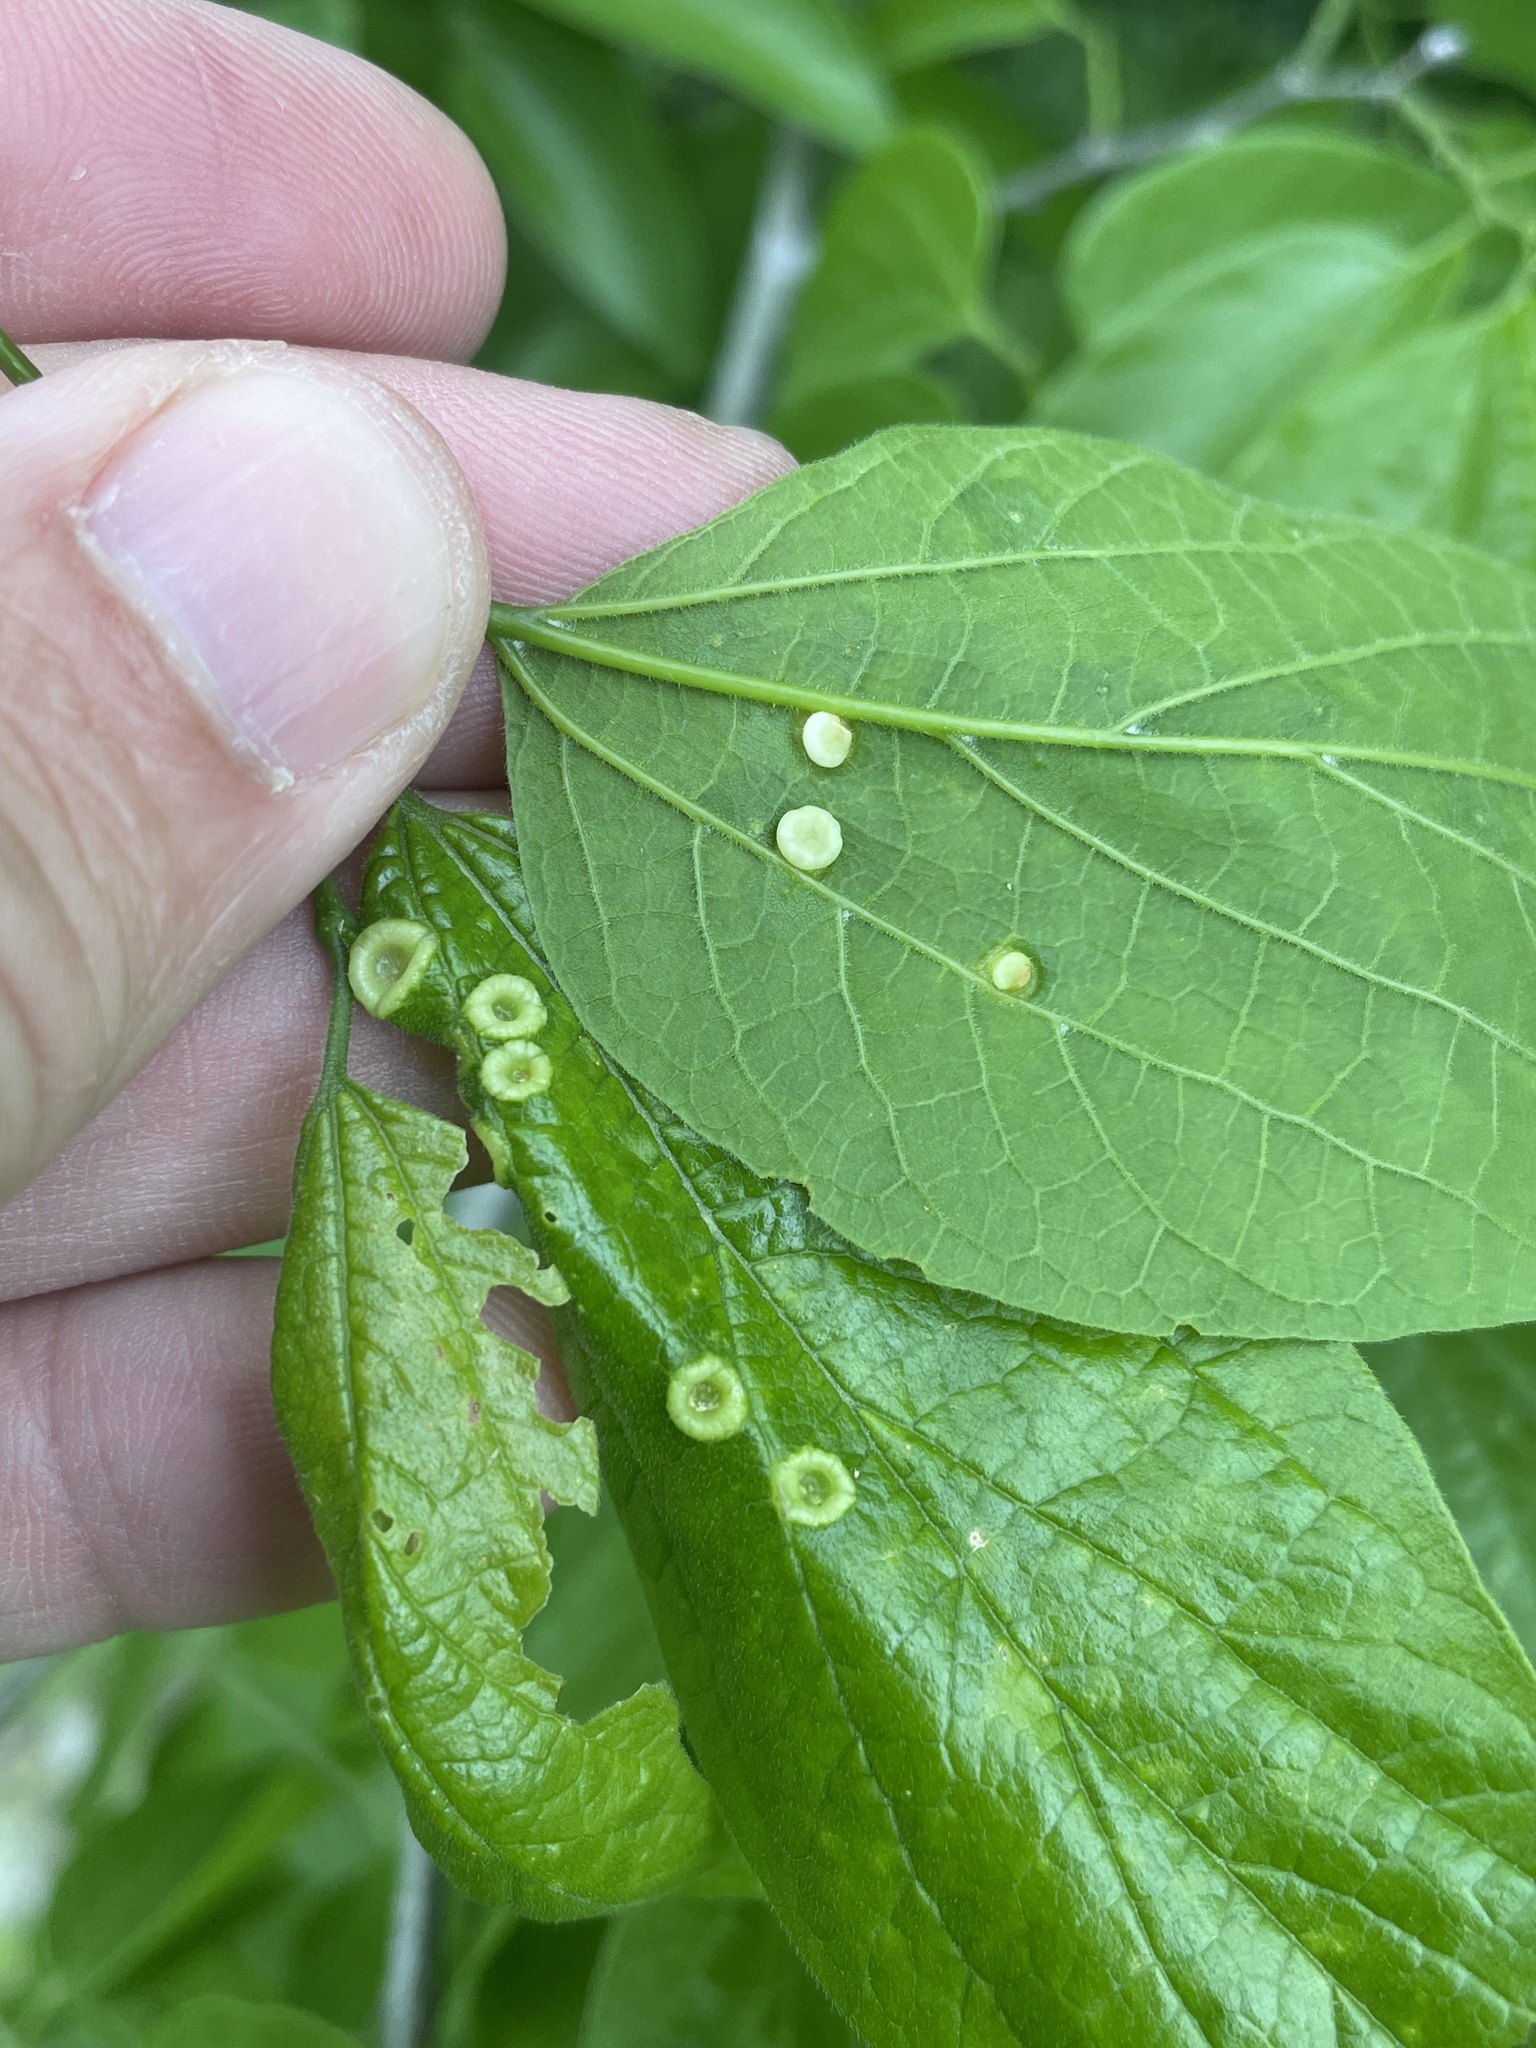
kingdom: Animalia
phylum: Arthropoda
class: Insecta
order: Hemiptera
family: Aphalaridae
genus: Pachypsylla
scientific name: Pachypsylla celtidismamma
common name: Hackberry nipplegall psyllid
